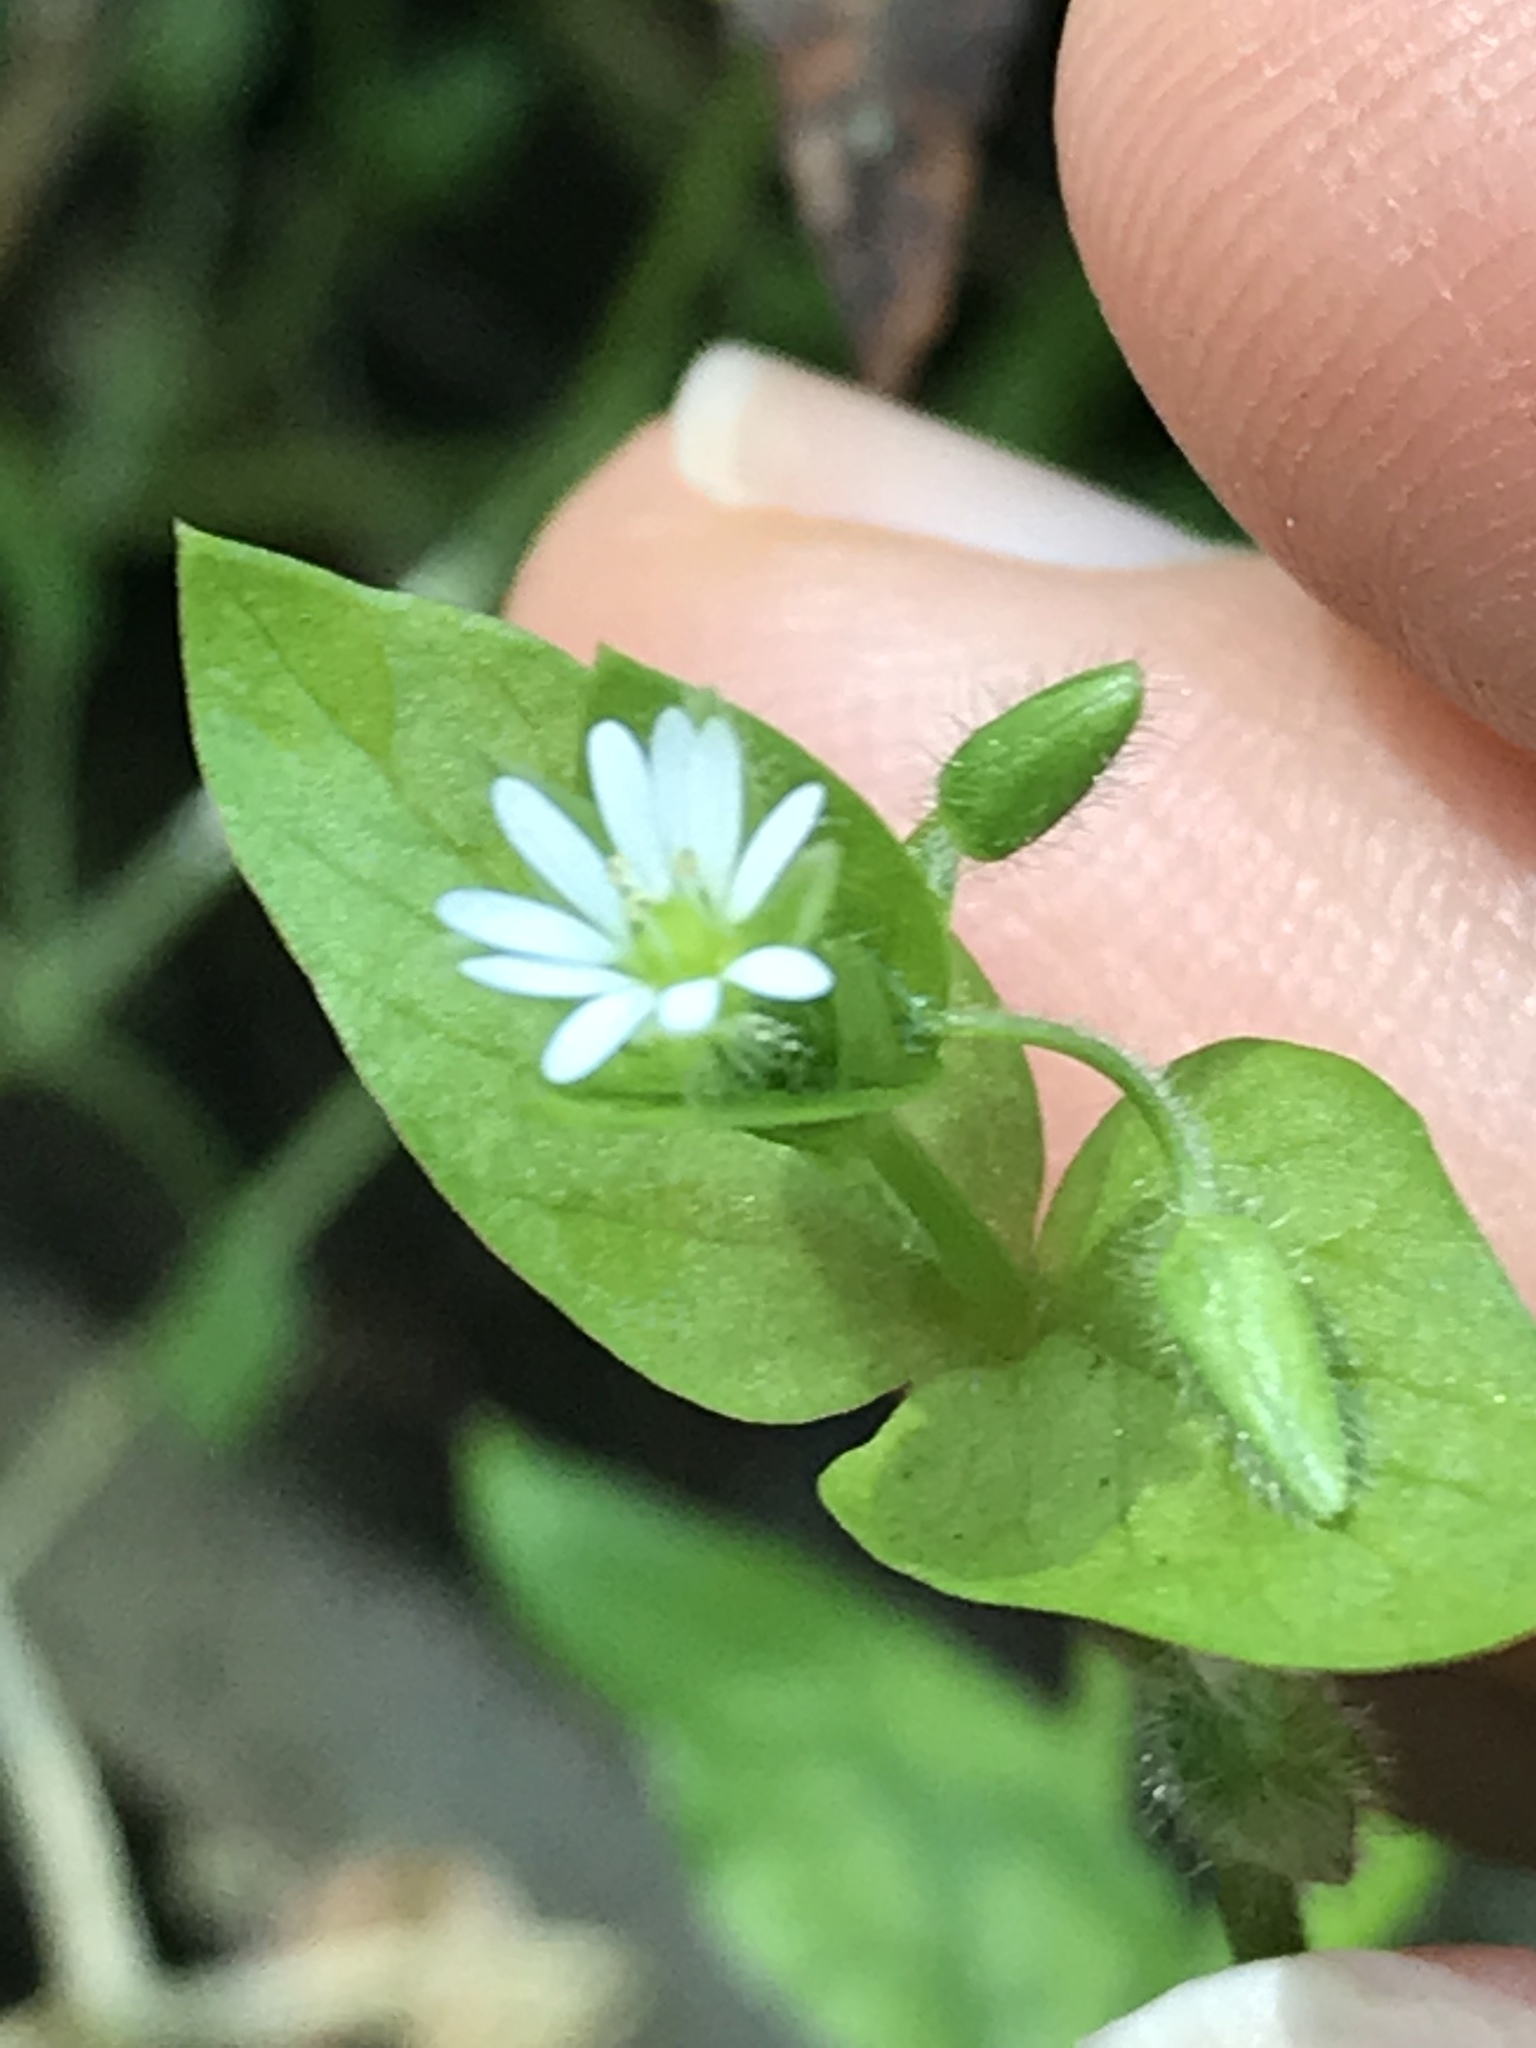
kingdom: Plantae
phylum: Tracheophyta
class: Magnoliopsida
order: Caryophyllales
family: Caryophyllaceae
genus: Stellaria
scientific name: Stellaria media
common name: Common chickweed
